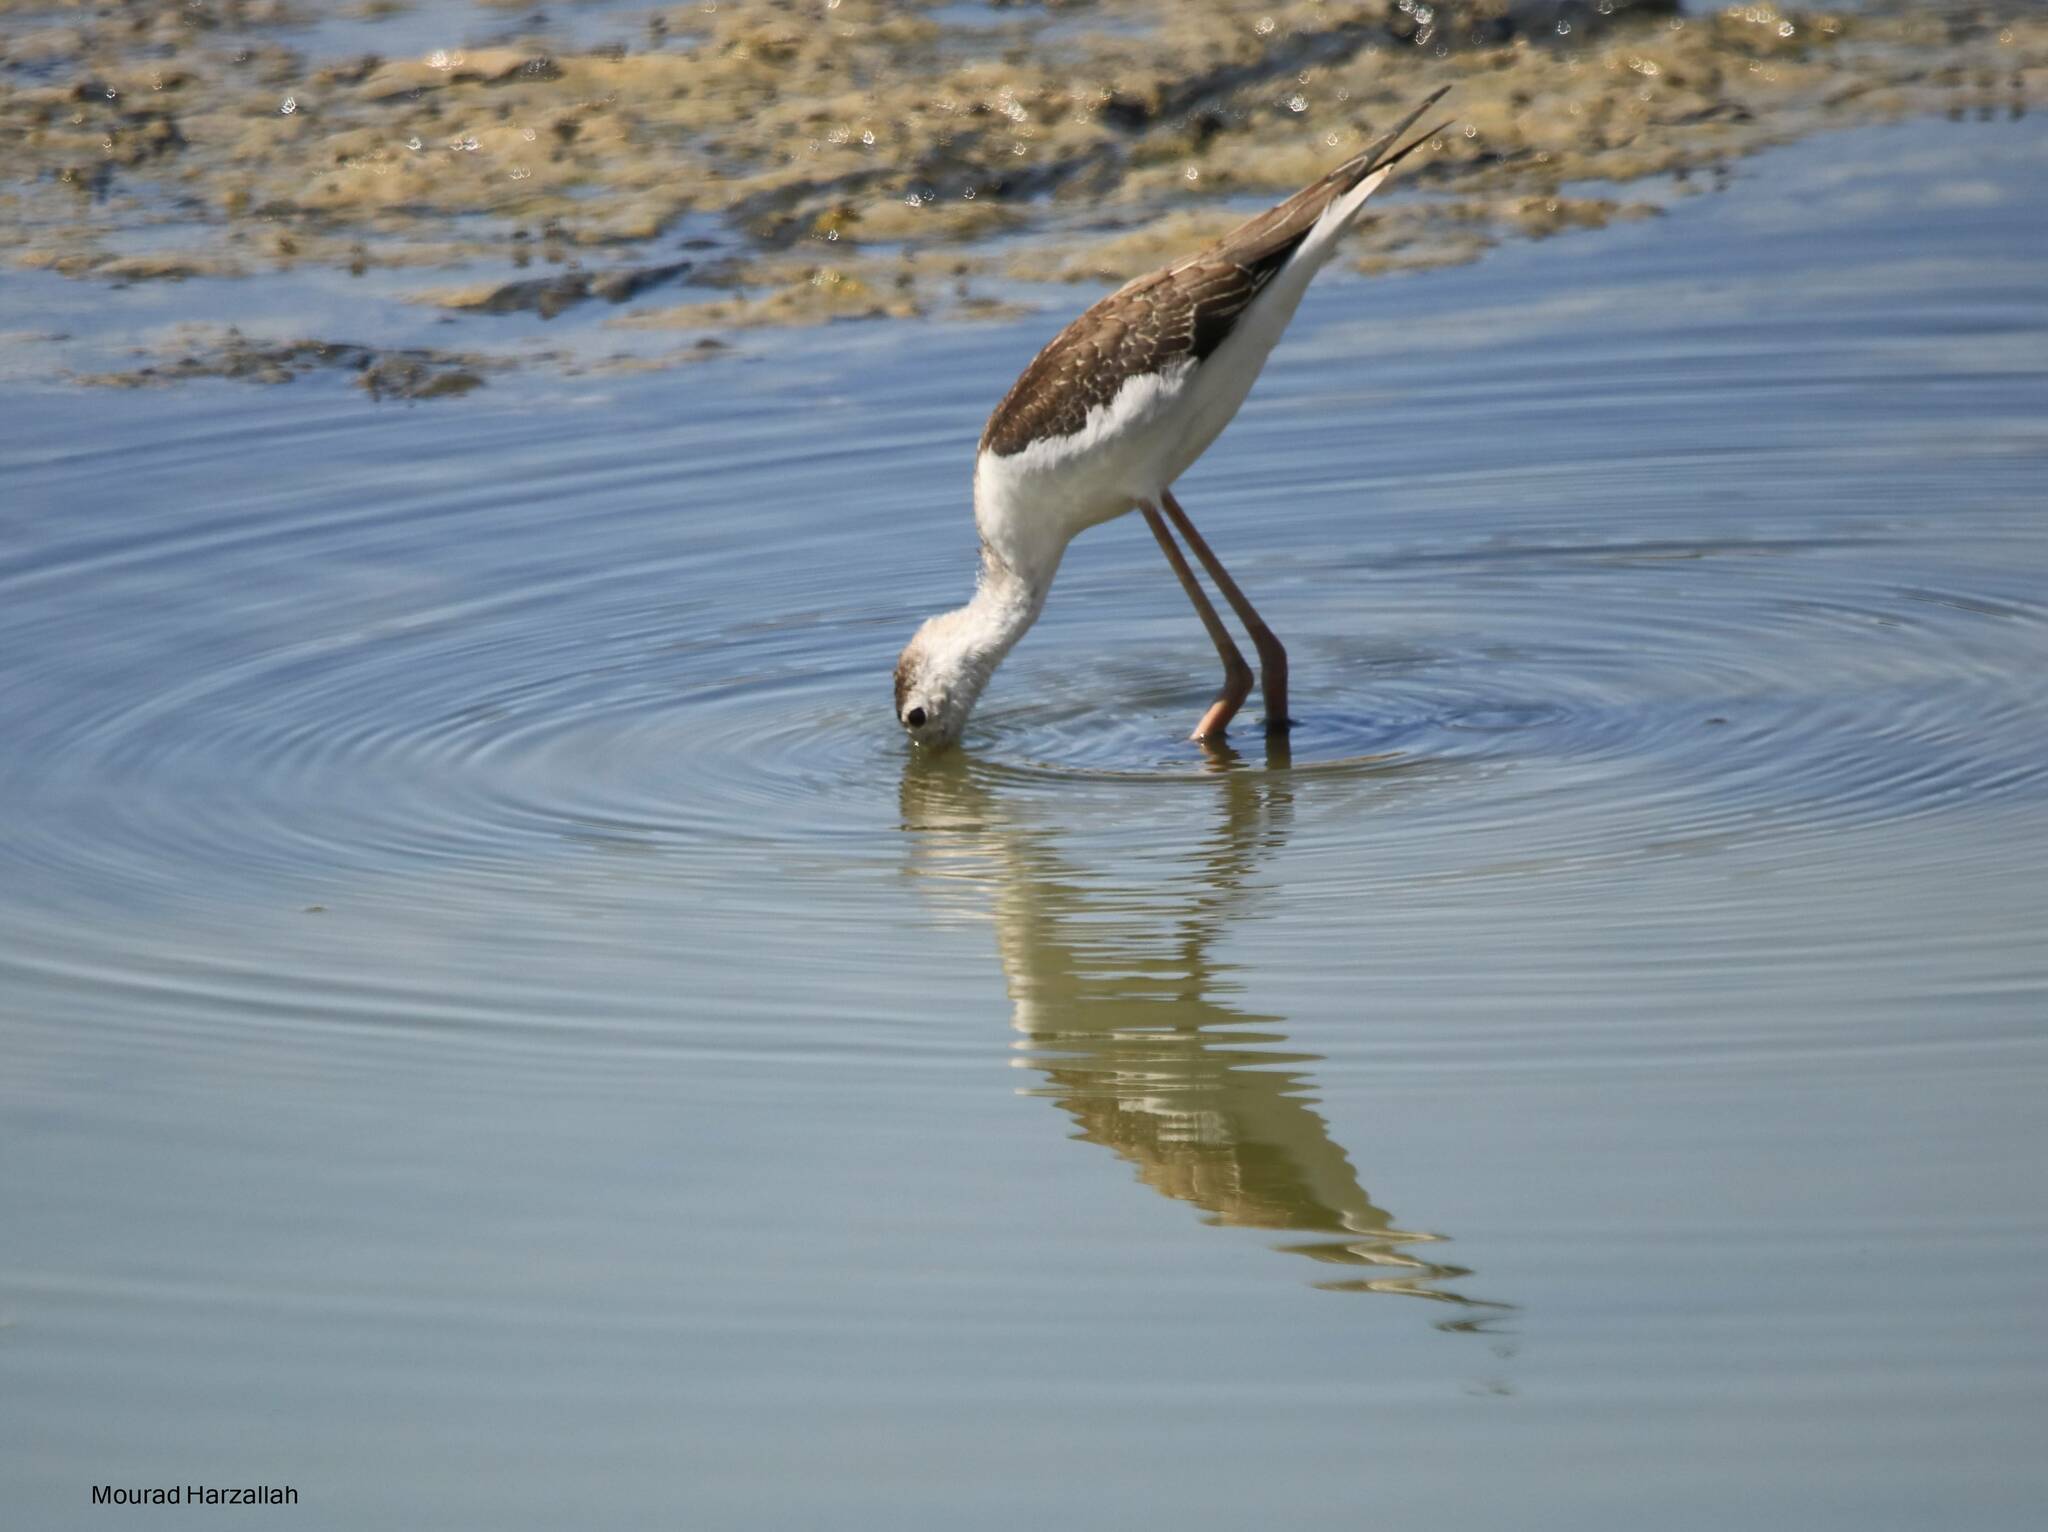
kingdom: Animalia
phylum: Chordata
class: Aves
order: Charadriiformes
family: Recurvirostridae
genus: Himantopus
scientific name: Himantopus himantopus
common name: Black-winged stilt
